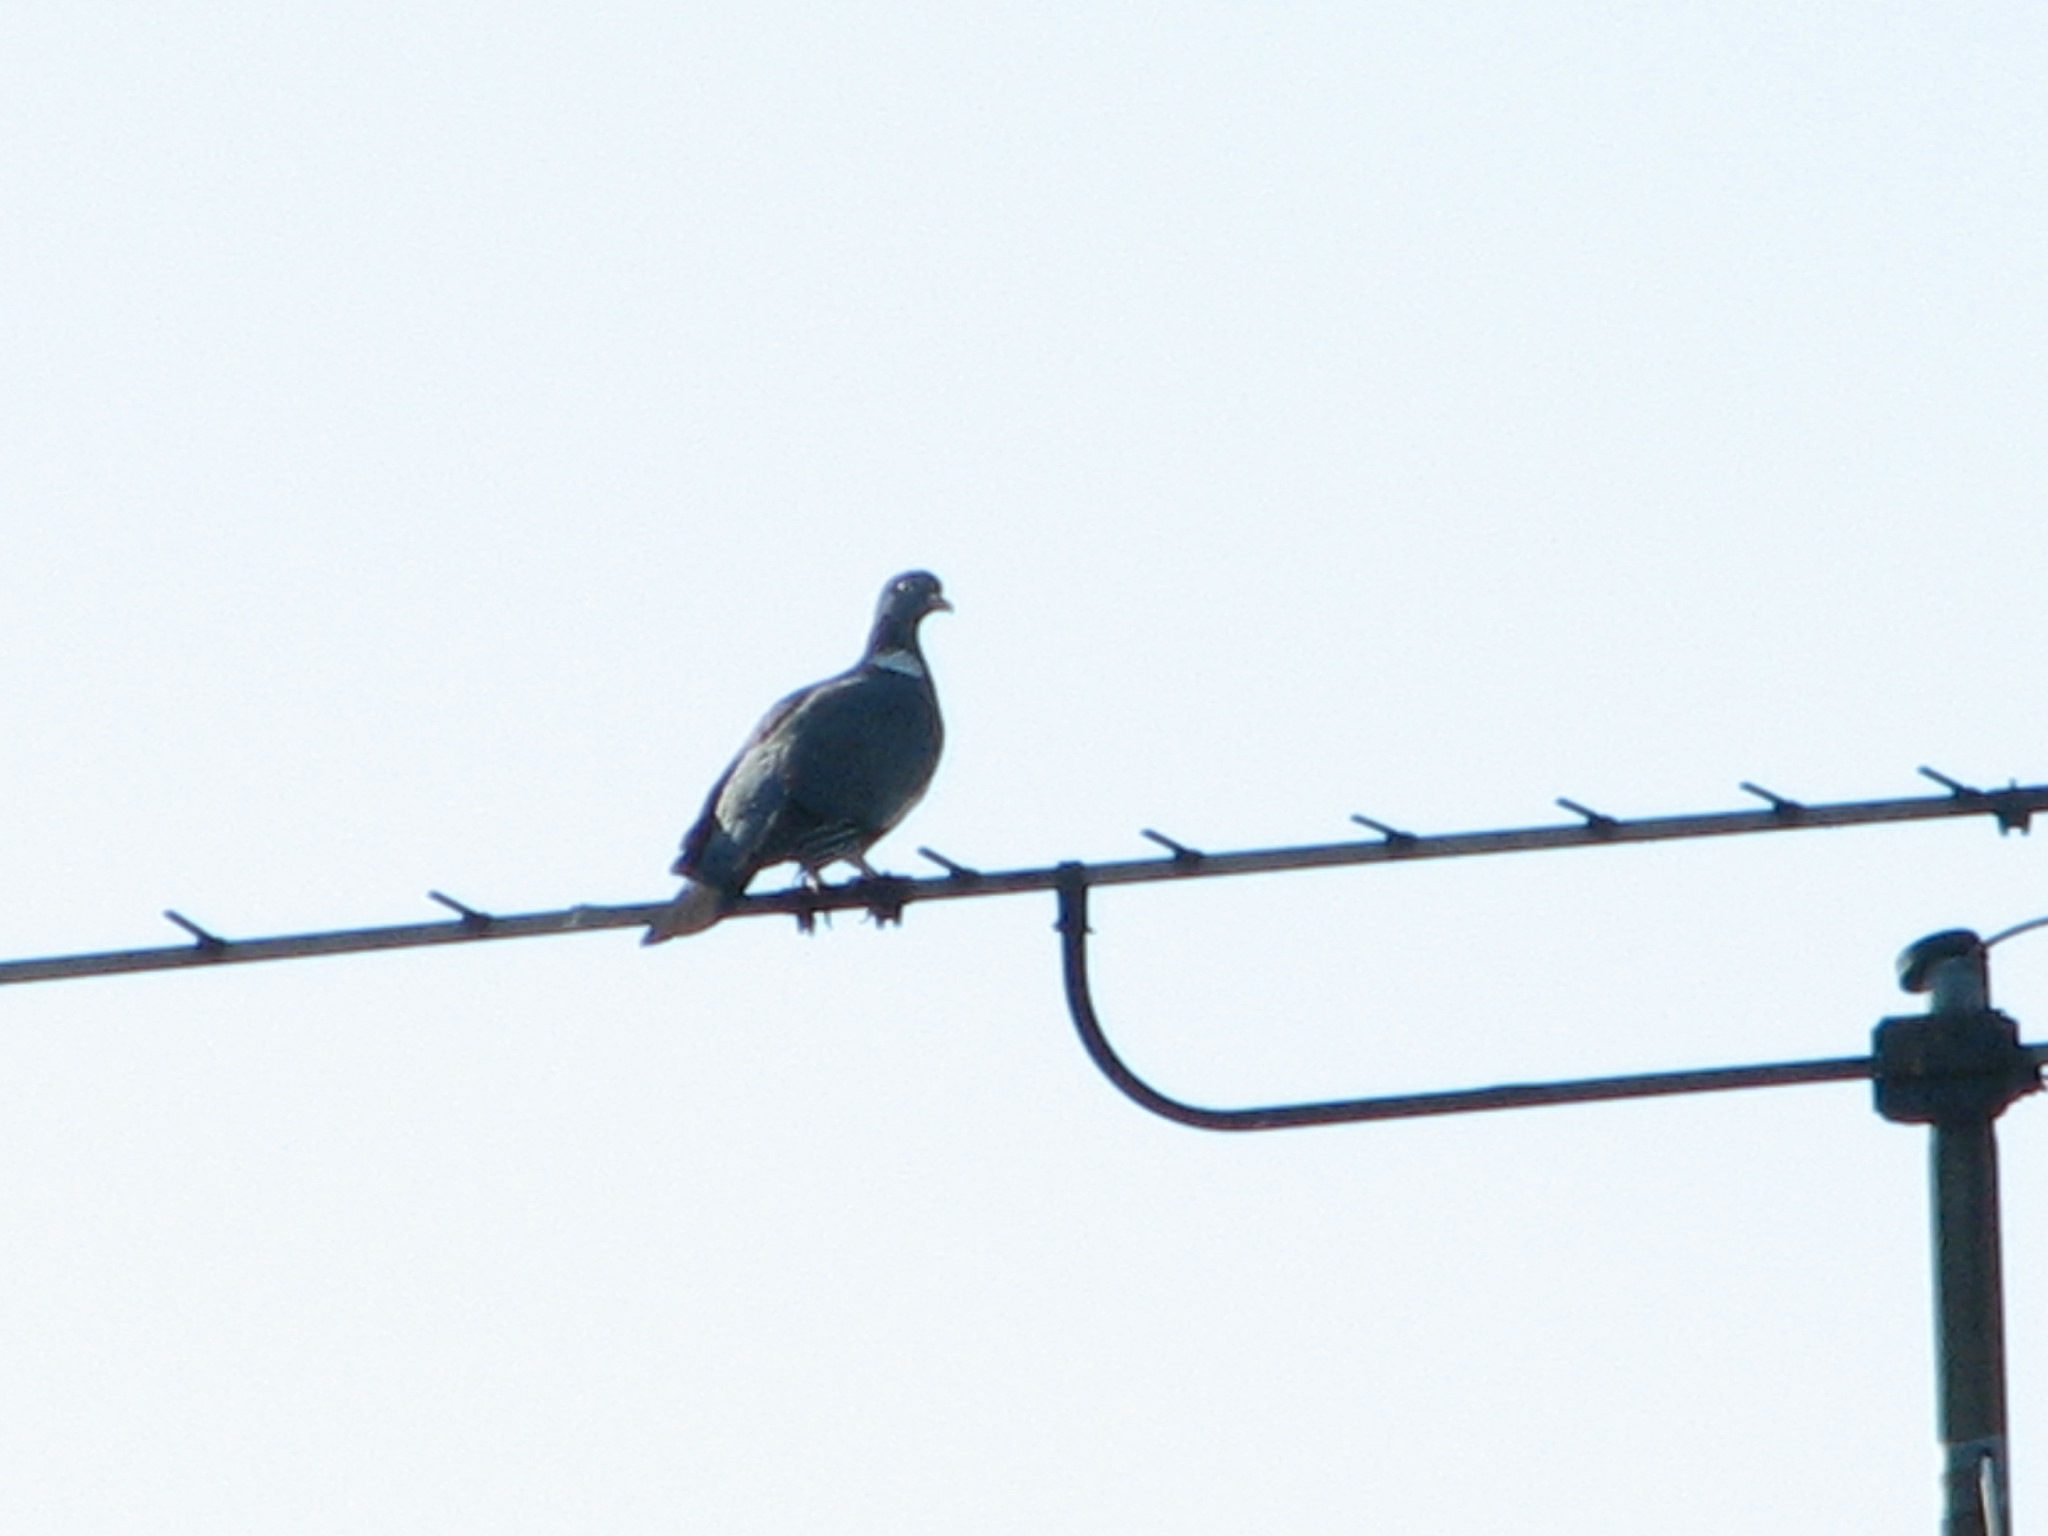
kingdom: Animalia
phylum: Chordata
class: Aves
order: Columbiformes
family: Columbidae
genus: Columba
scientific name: Columba palumbus
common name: Common wood pigeon
